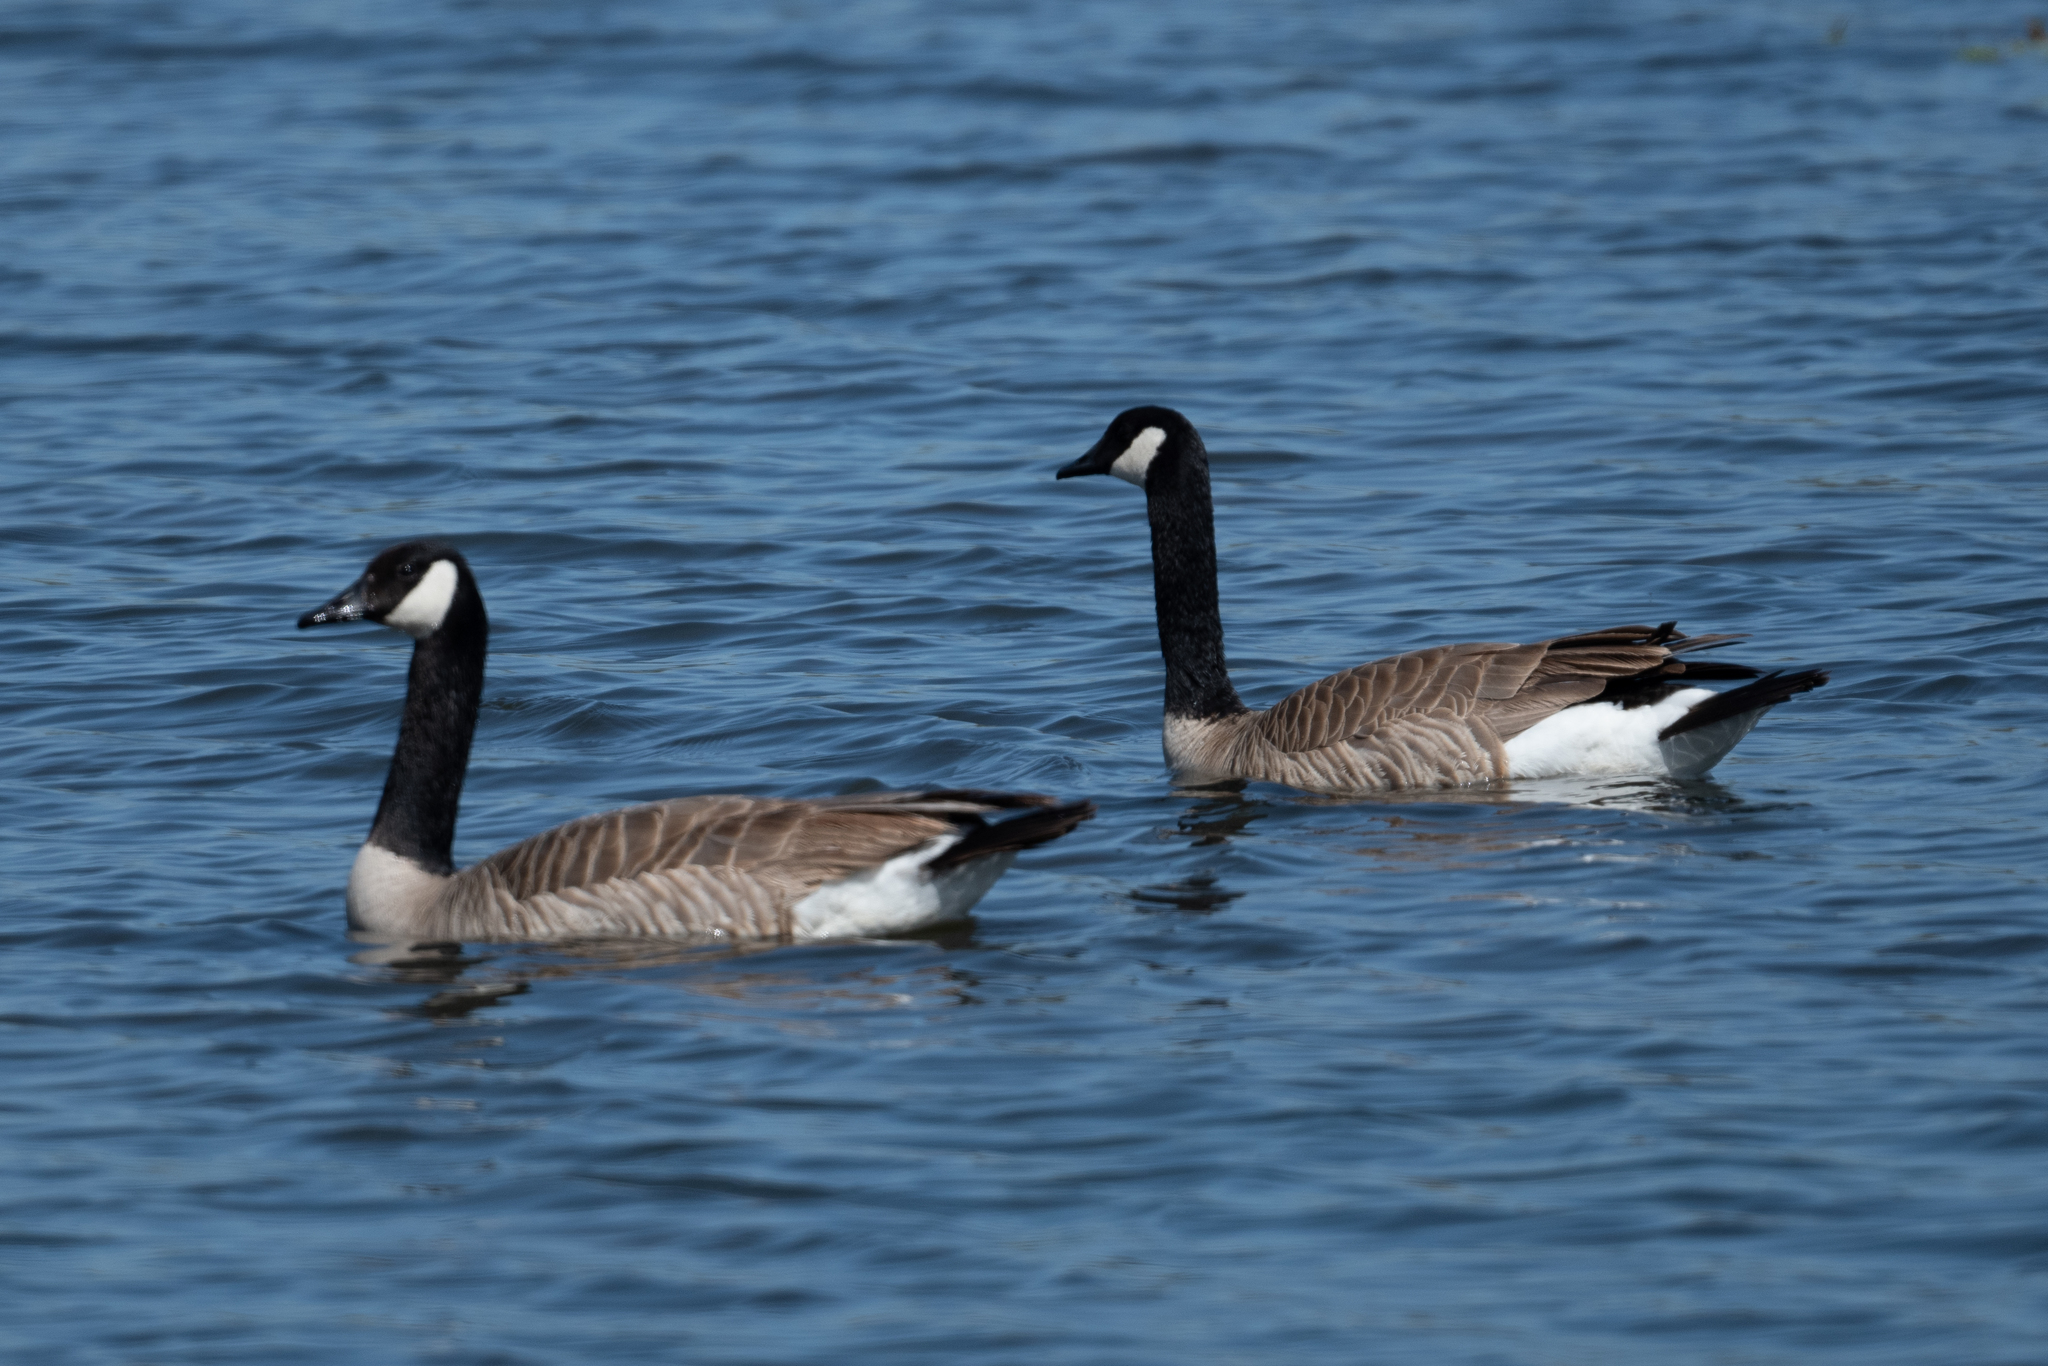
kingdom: Animalia
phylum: Chordata
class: Aves
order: Anseriformes
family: Anatidae
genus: Branta
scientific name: Branta canadensis
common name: Canada goose
